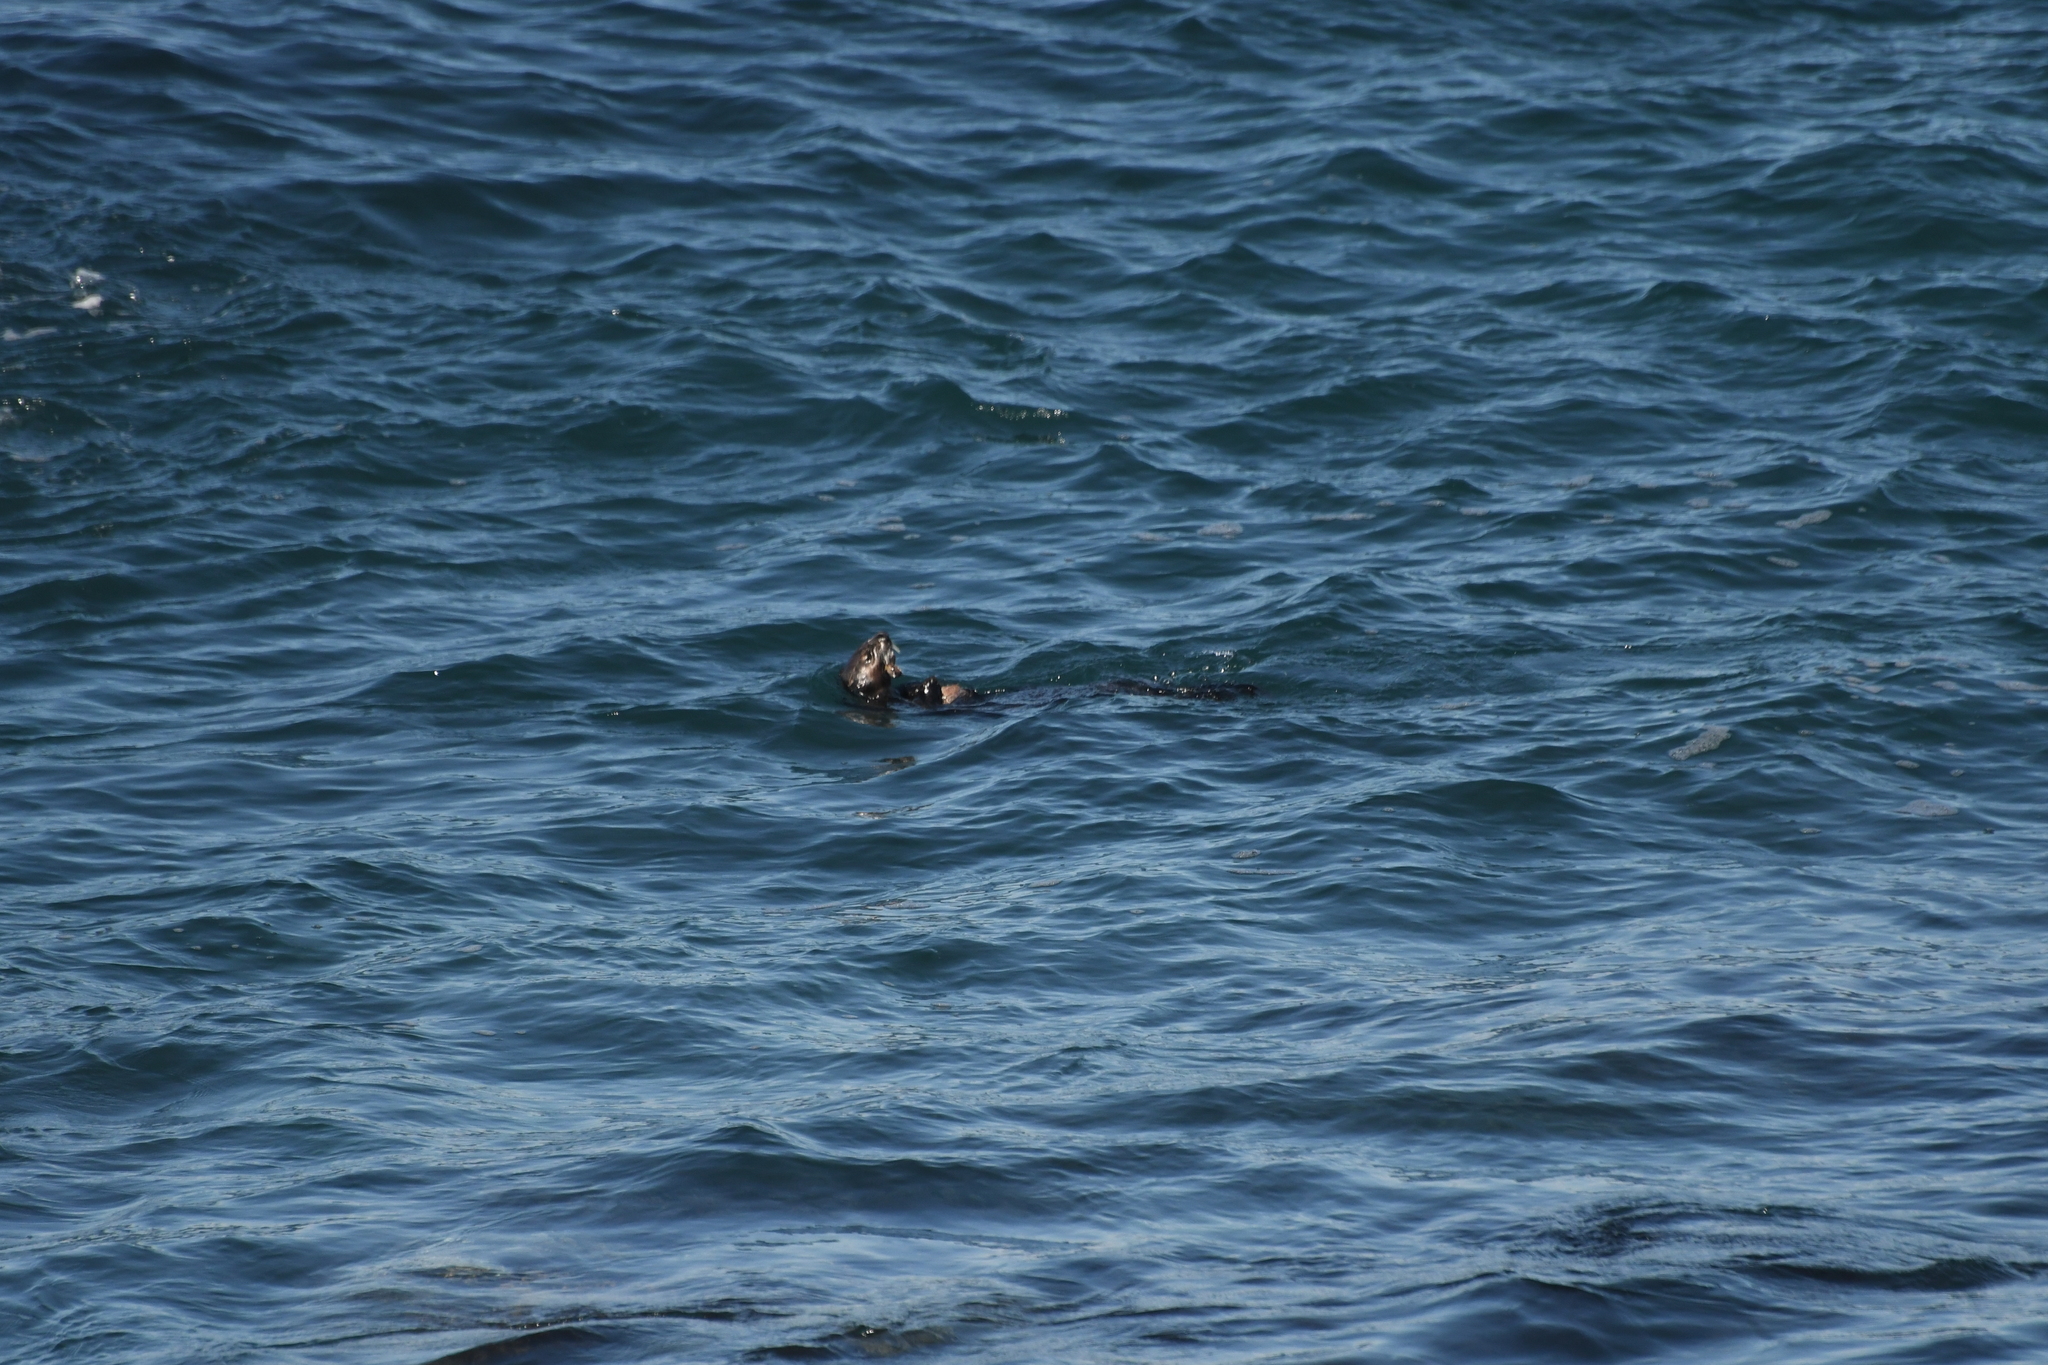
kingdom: Animalia
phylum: Chordata
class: Mammalia
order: Carnivora
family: Mustelidae
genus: Enhydra
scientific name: Enhydra lutris
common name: Sea otter
